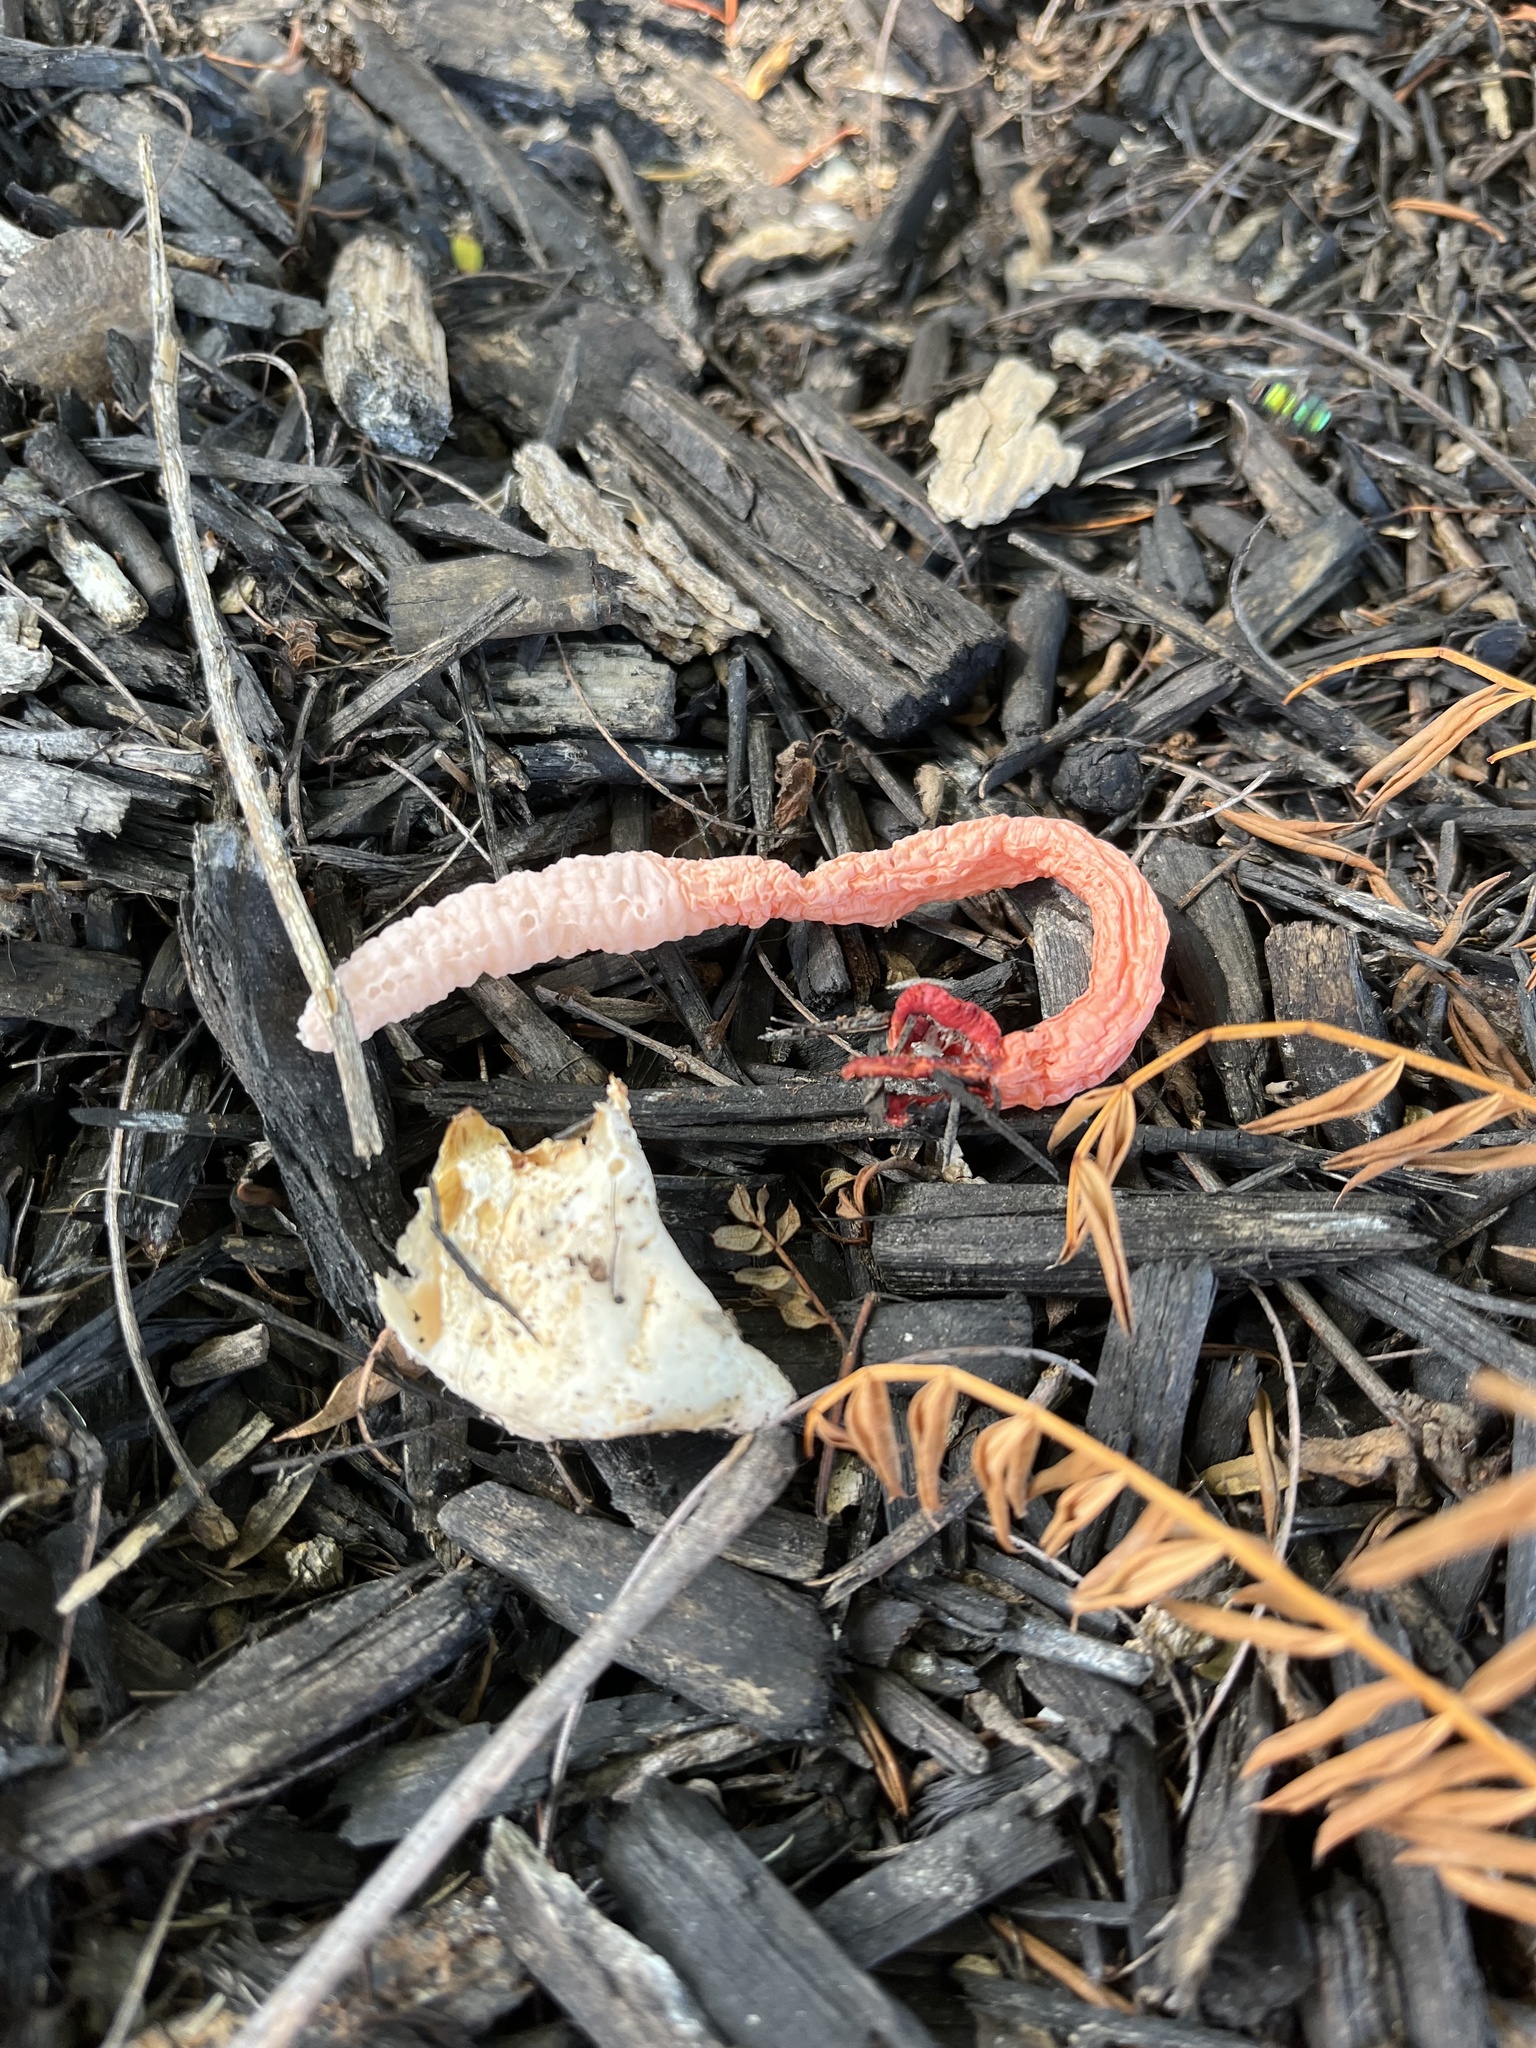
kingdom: Fungi
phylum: Basidiomycota
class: Agaricomycetes
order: Phallales
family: Phallaceae
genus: Lysurus
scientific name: Lysurus mokusin
